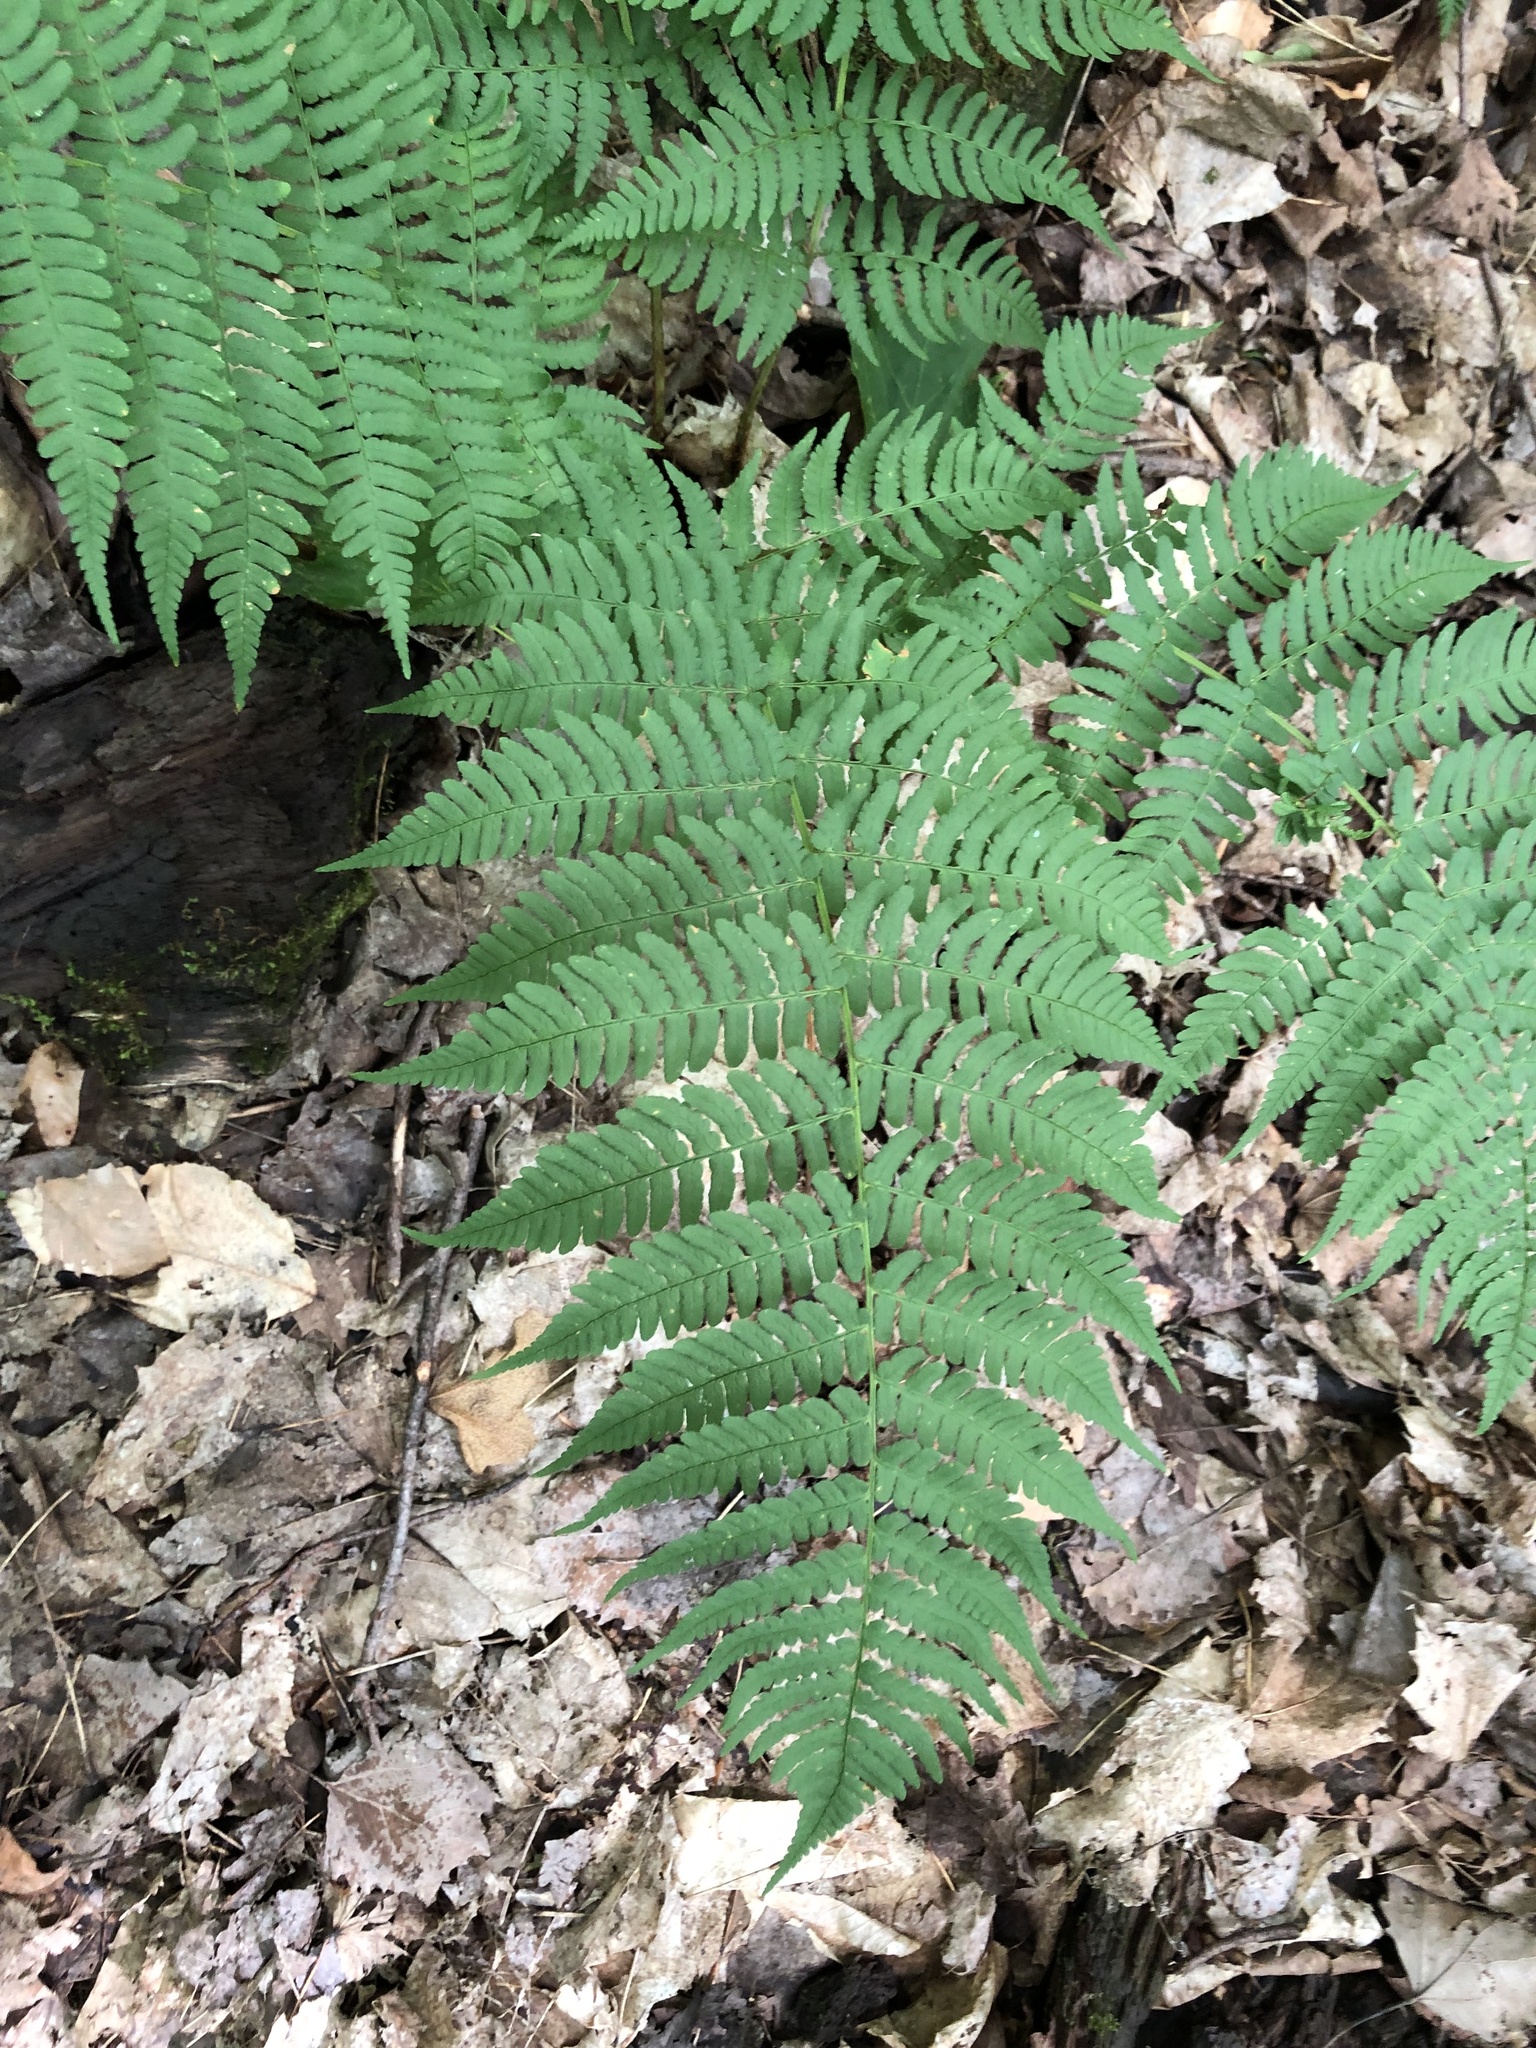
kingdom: Plantae
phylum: Tracheophyta
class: Polypodiopsida
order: Polypodiales
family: Dryopteridaceae
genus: Dryopteris
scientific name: Dryopteris marginalis
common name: Marginal wood fern
